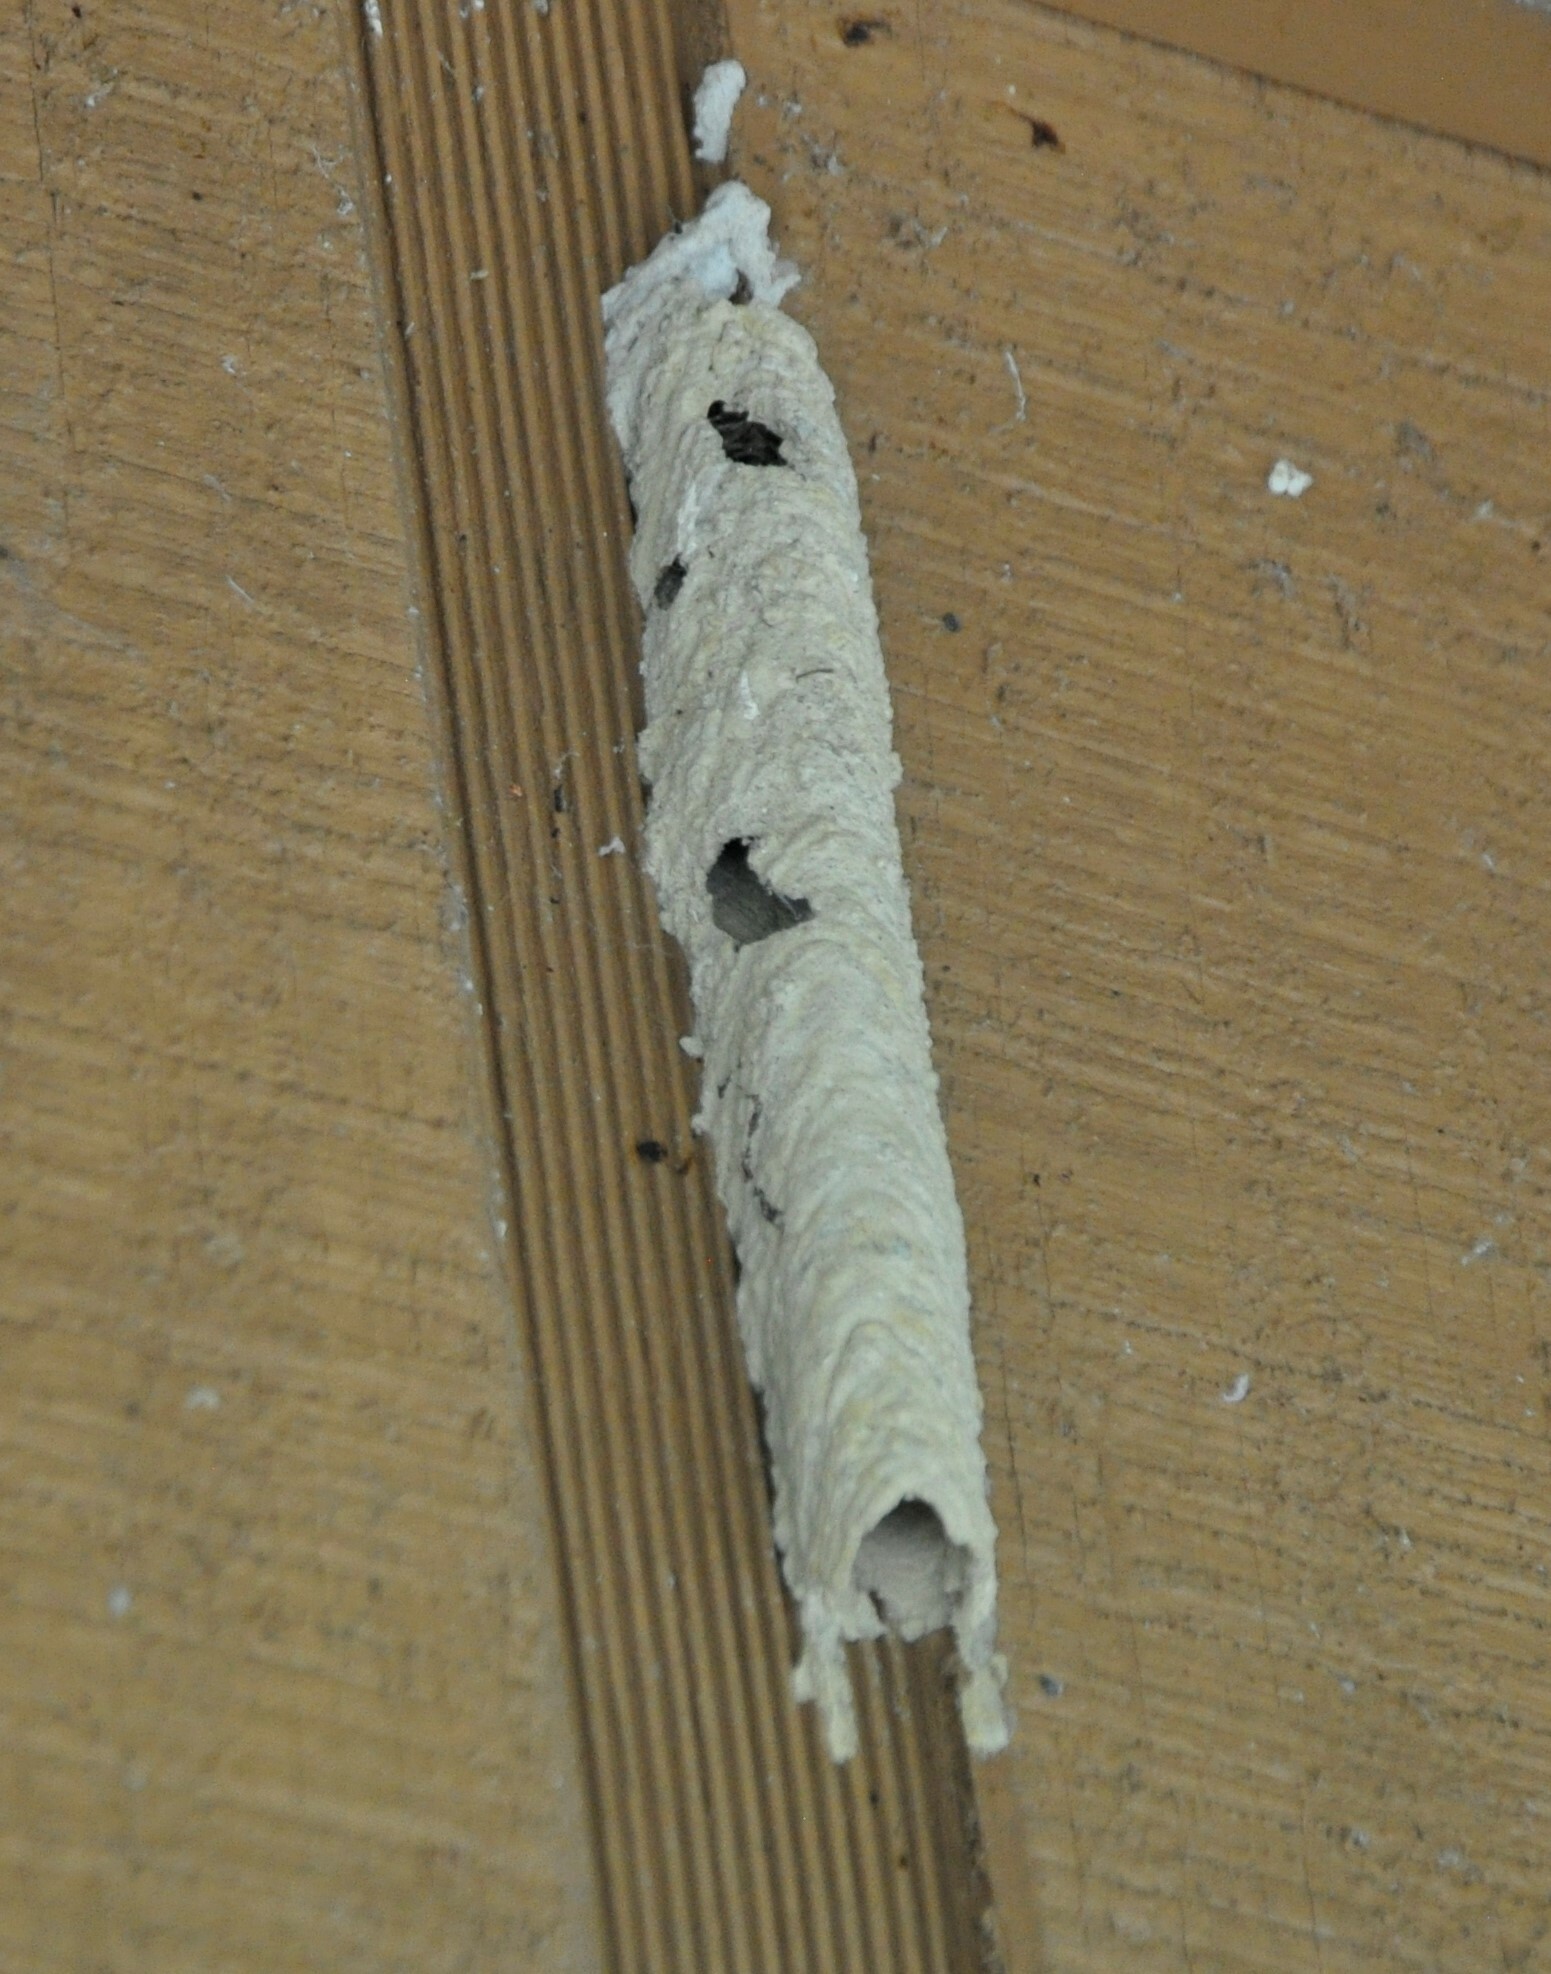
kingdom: Animalia
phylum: Arthropoda
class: Insecta
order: Hymenoptera
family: Crabronidae
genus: Trypoxylon
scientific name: Trypoxylon politum
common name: Organ-pipe mud-dauber wasp
